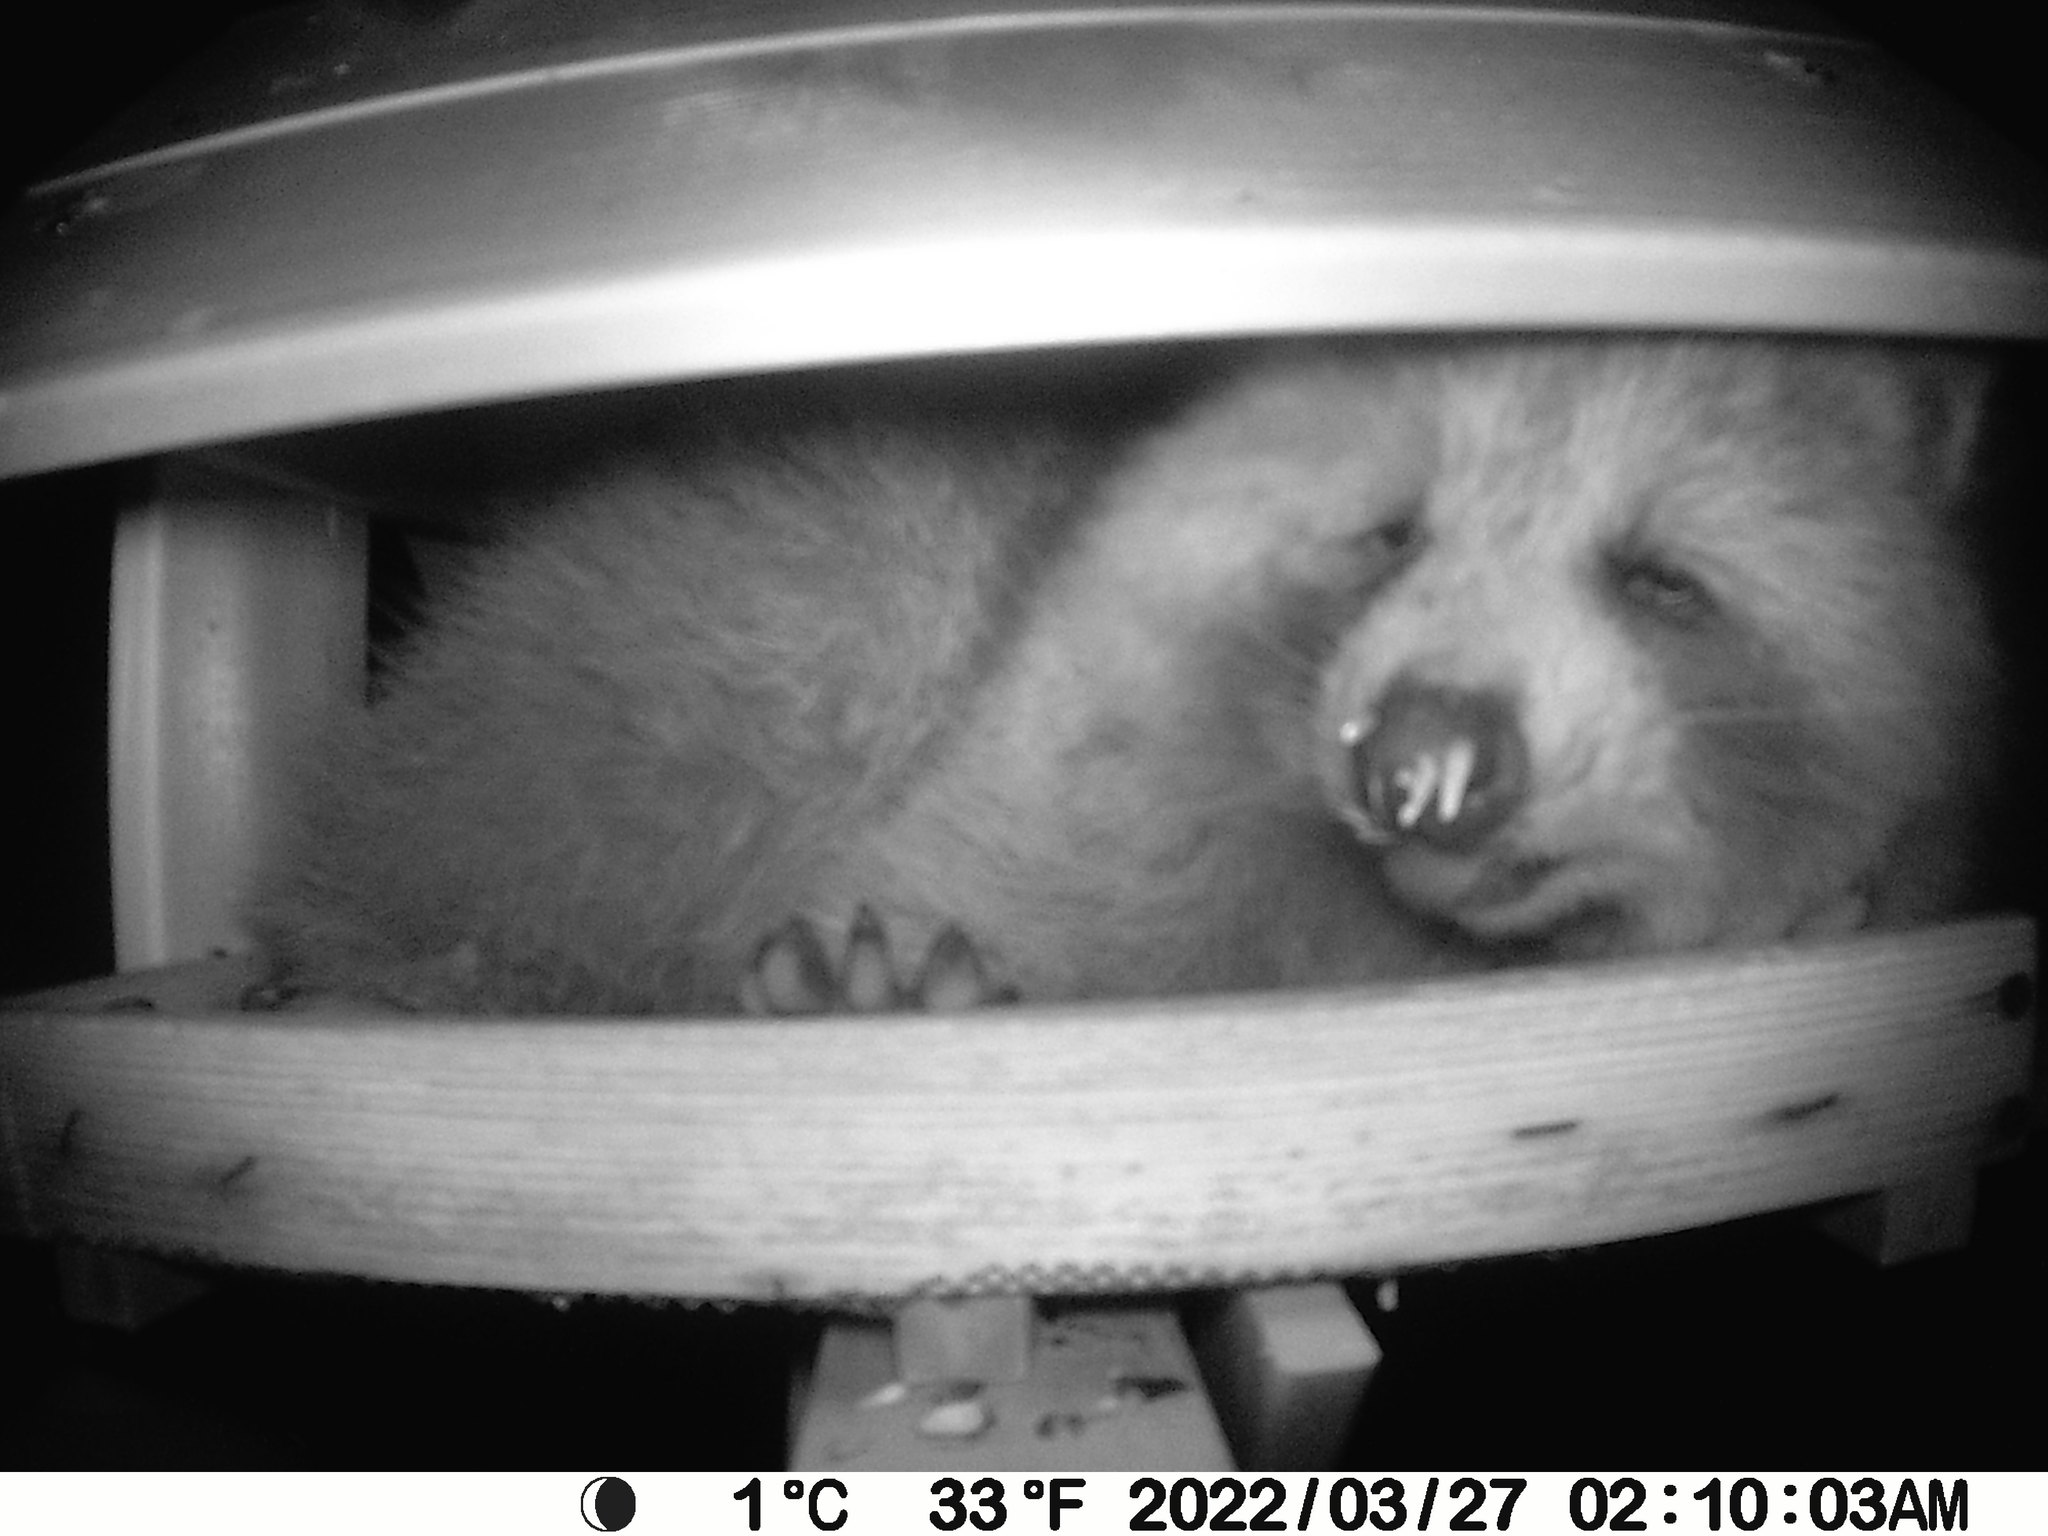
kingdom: Animalia
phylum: Chordata
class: Mammalia
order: Carnivora
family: Procyonidae
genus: Procyon
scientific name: Procyon lotor
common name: Raccoon
